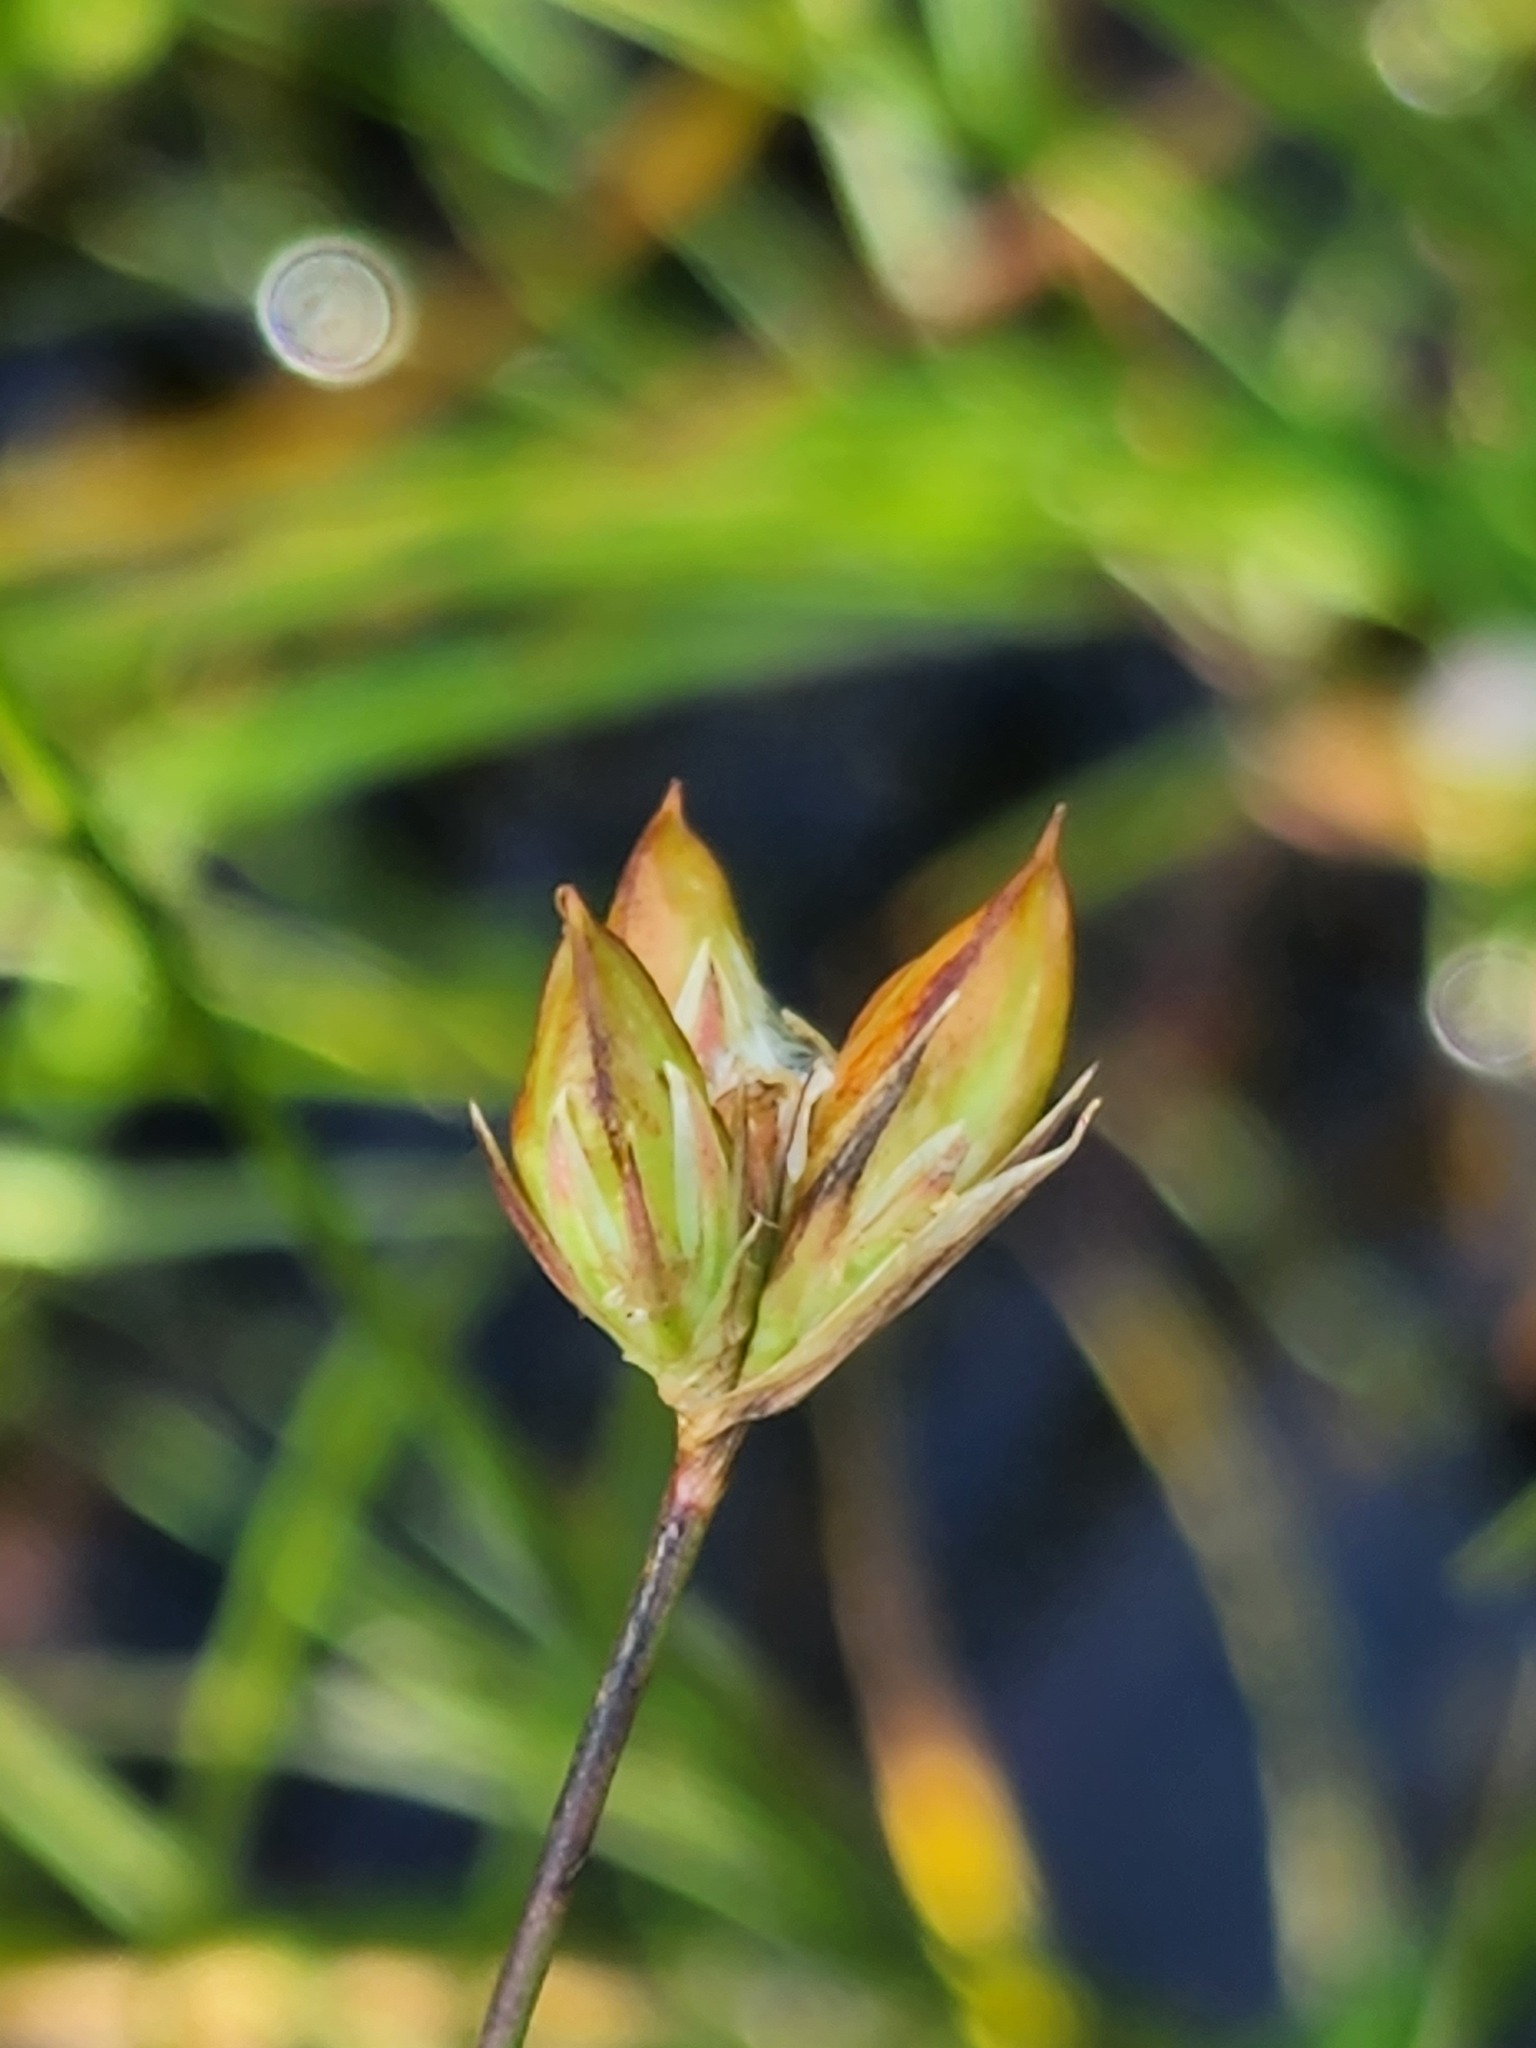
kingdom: Plantae
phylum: Tracheophyta
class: Liliopsida
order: Poales
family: Juncaceae
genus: Juncus
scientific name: Juncus stygius
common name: Bog rush
